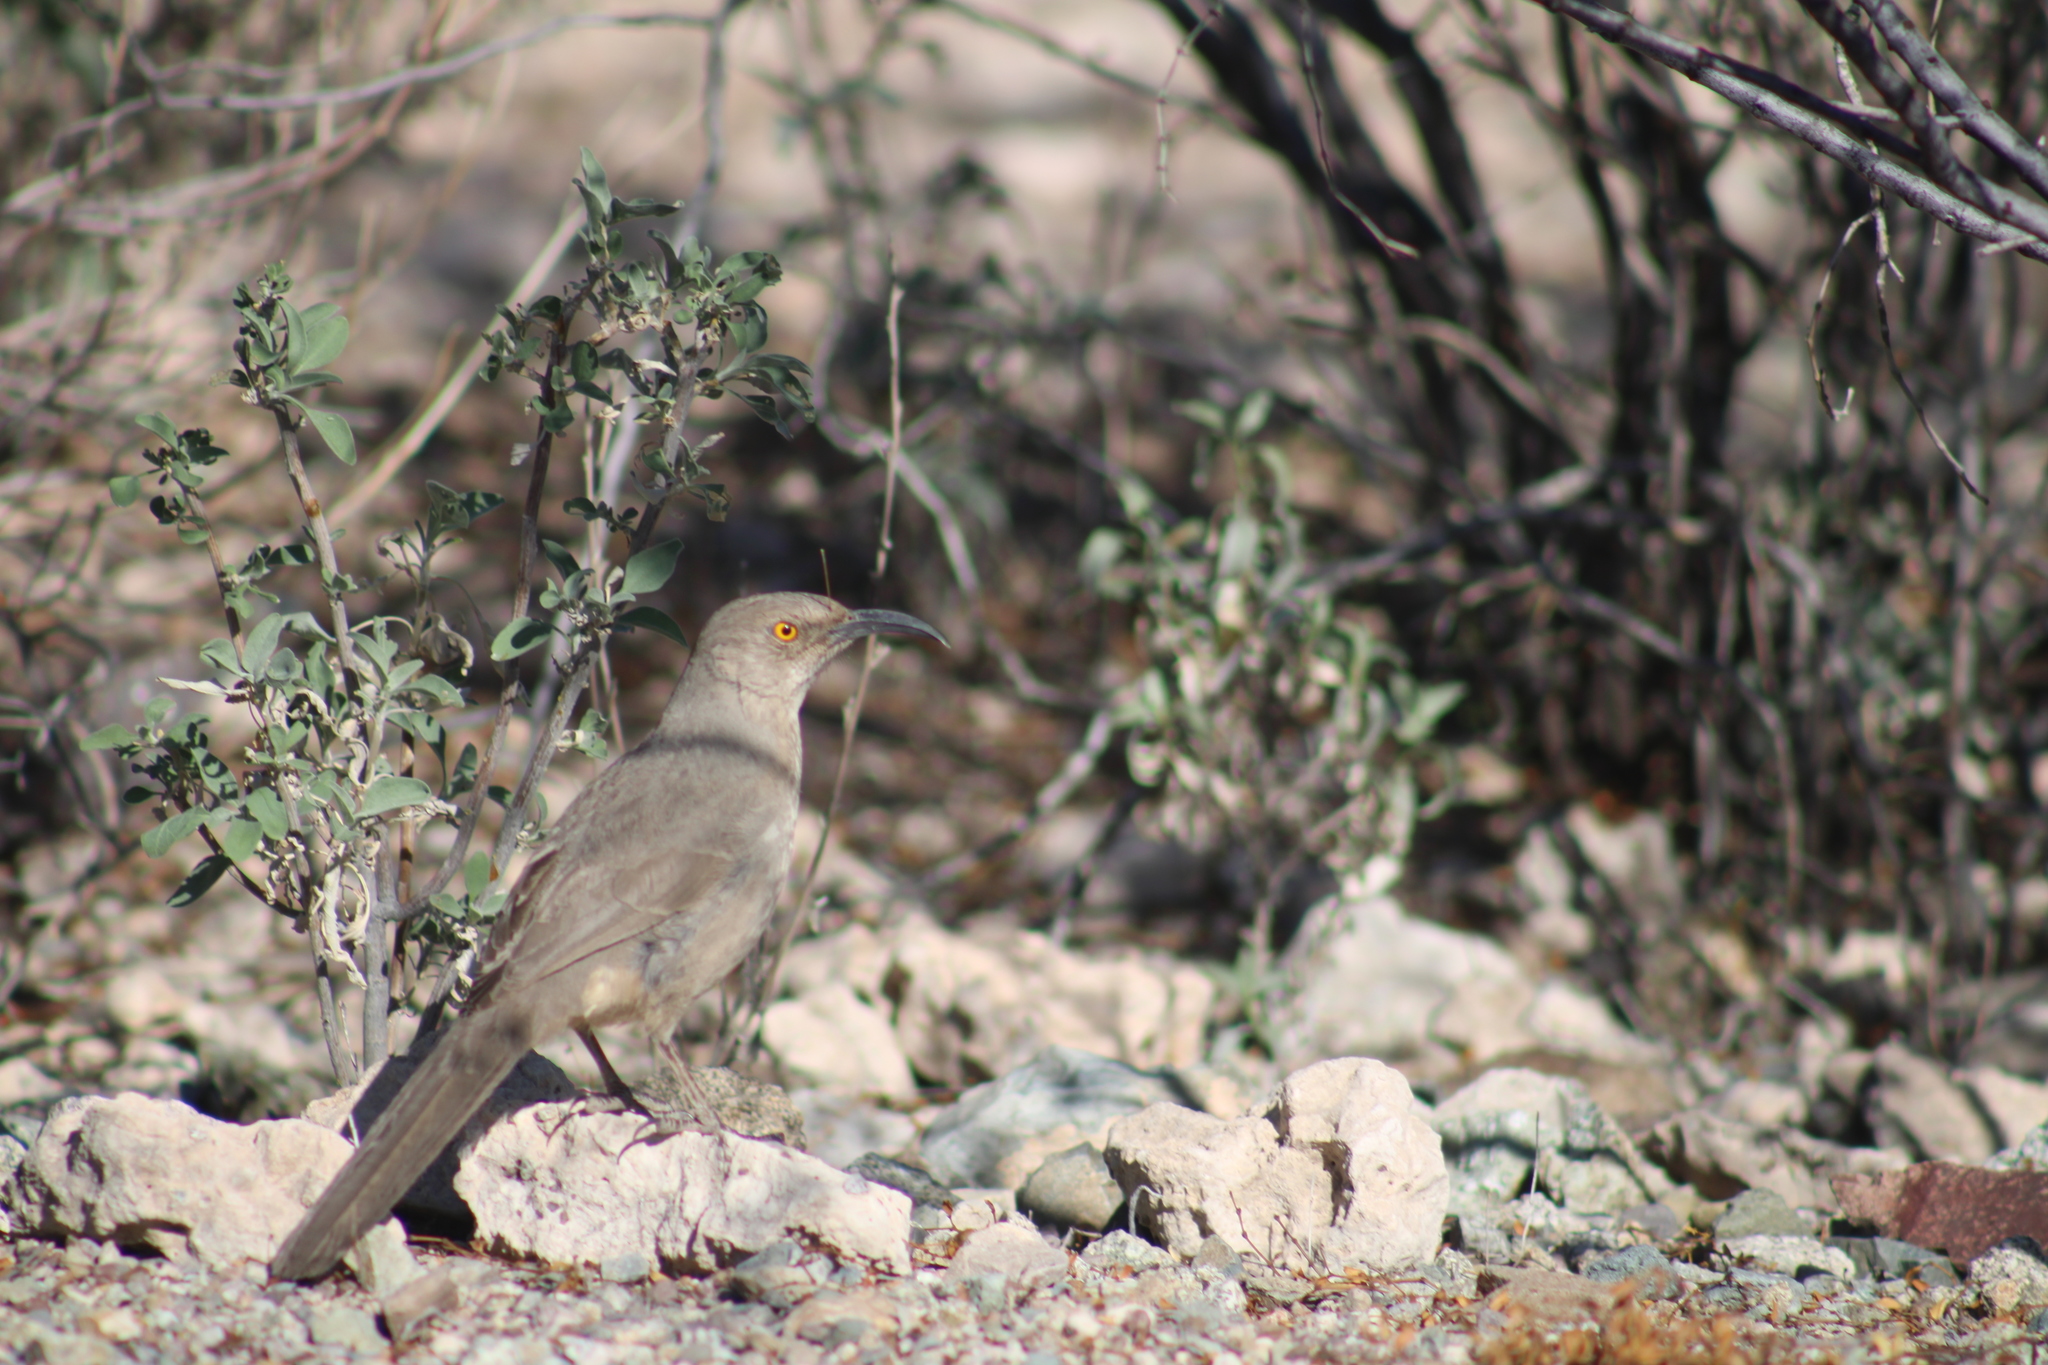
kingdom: Animalia
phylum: Chordata
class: Aves
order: Passeriformes
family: Mimidae
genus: Toxostoma
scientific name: Toxostoma curvirostre
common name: Curve-billed thrasher
